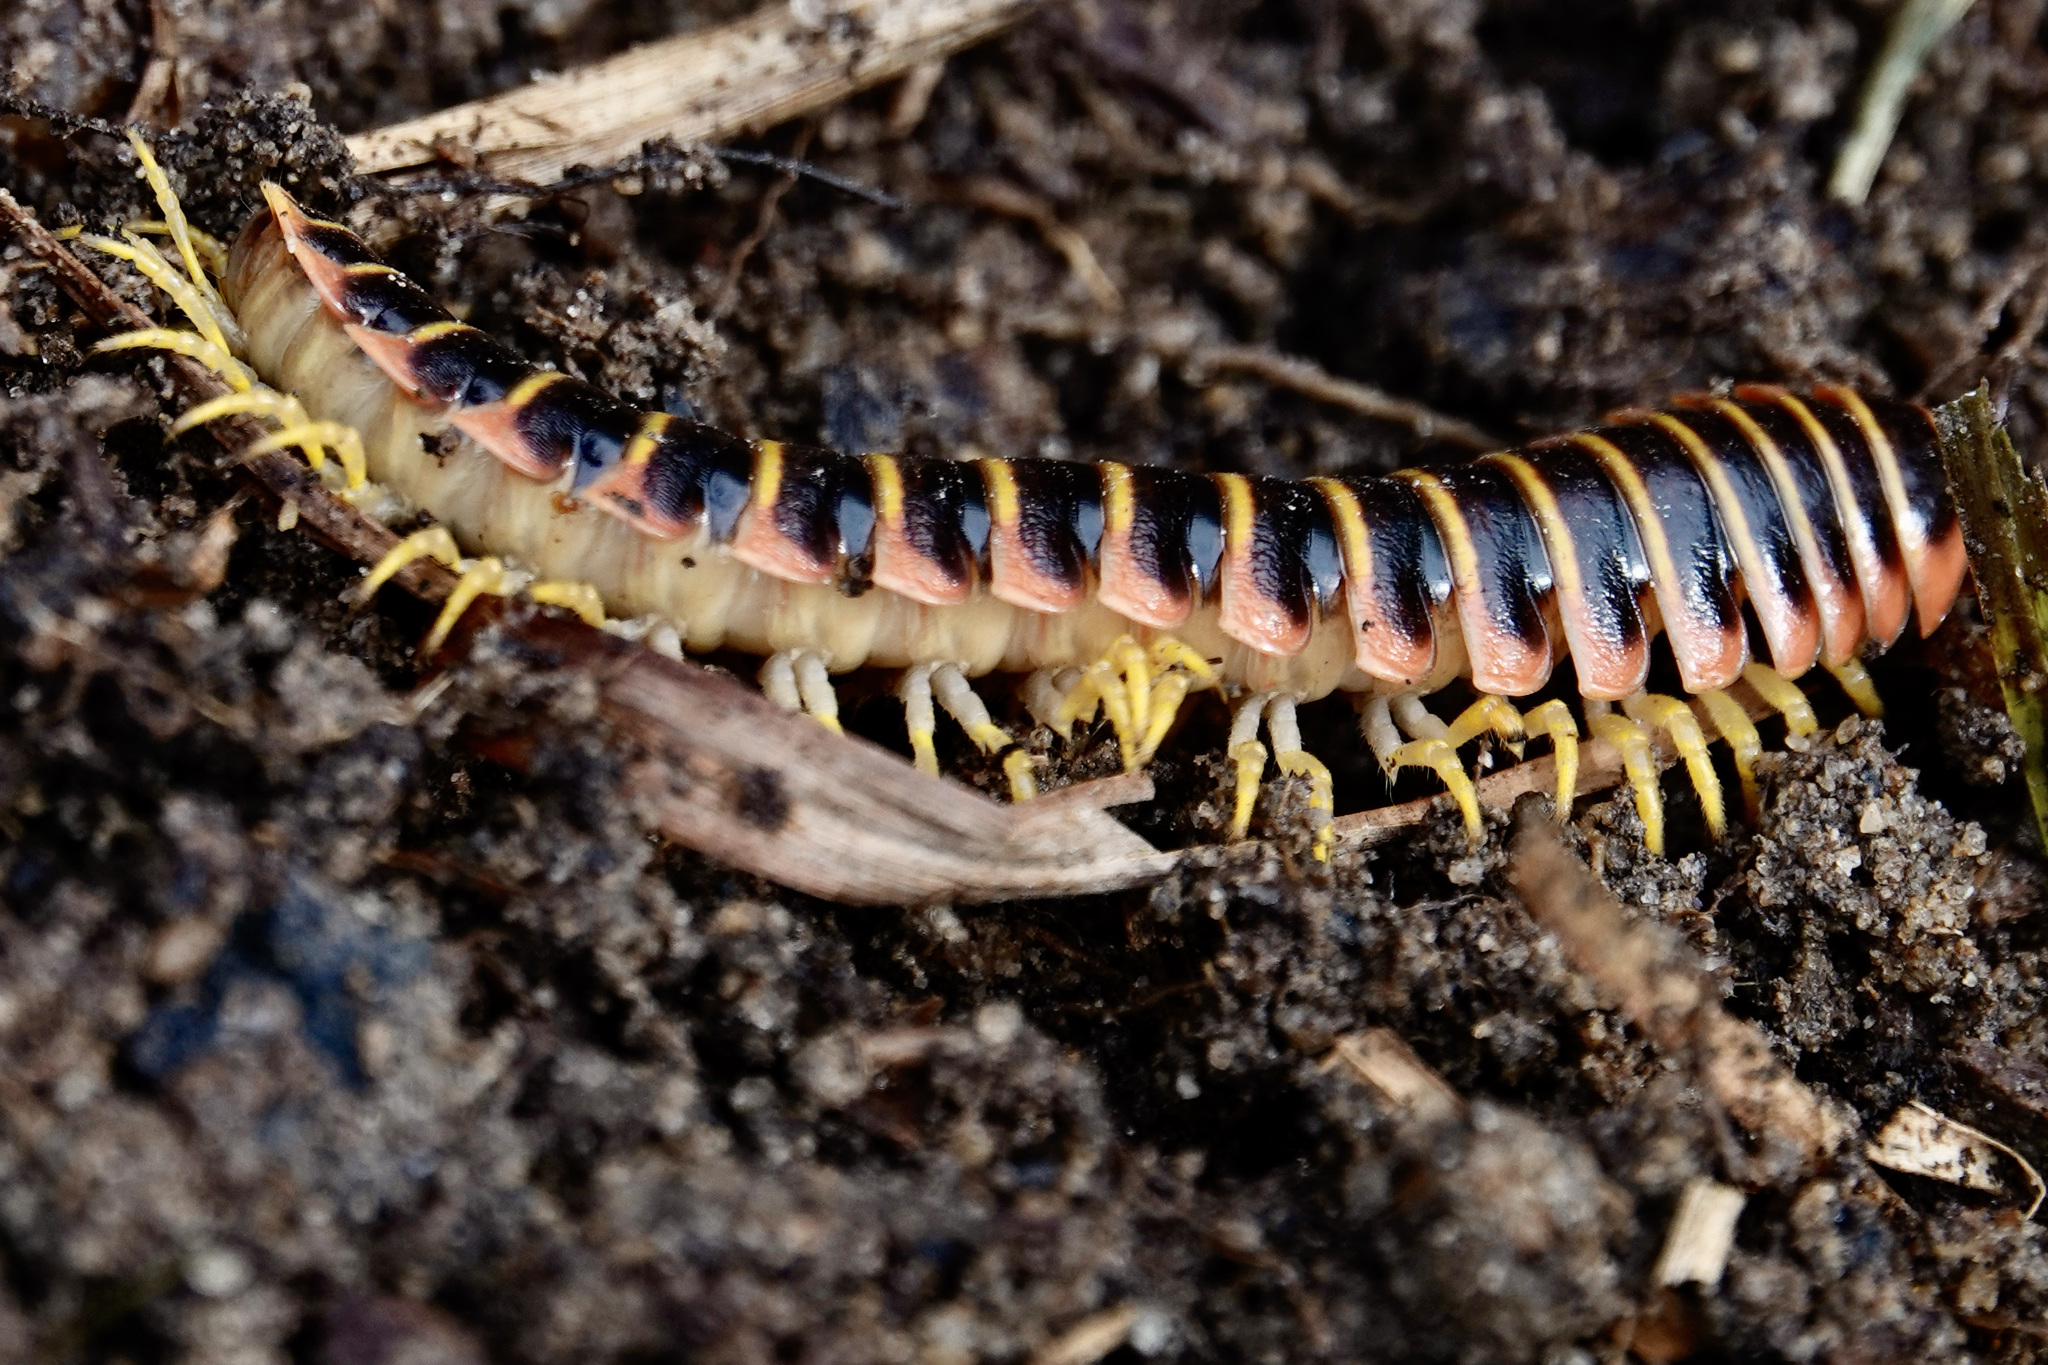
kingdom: Animalia
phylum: Arthropoda
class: Diplopoda
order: Polydesmida
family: Xystodesmidae
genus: Apheloria
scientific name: Apheloria virginiensis
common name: Black-and-gold flat millipede
